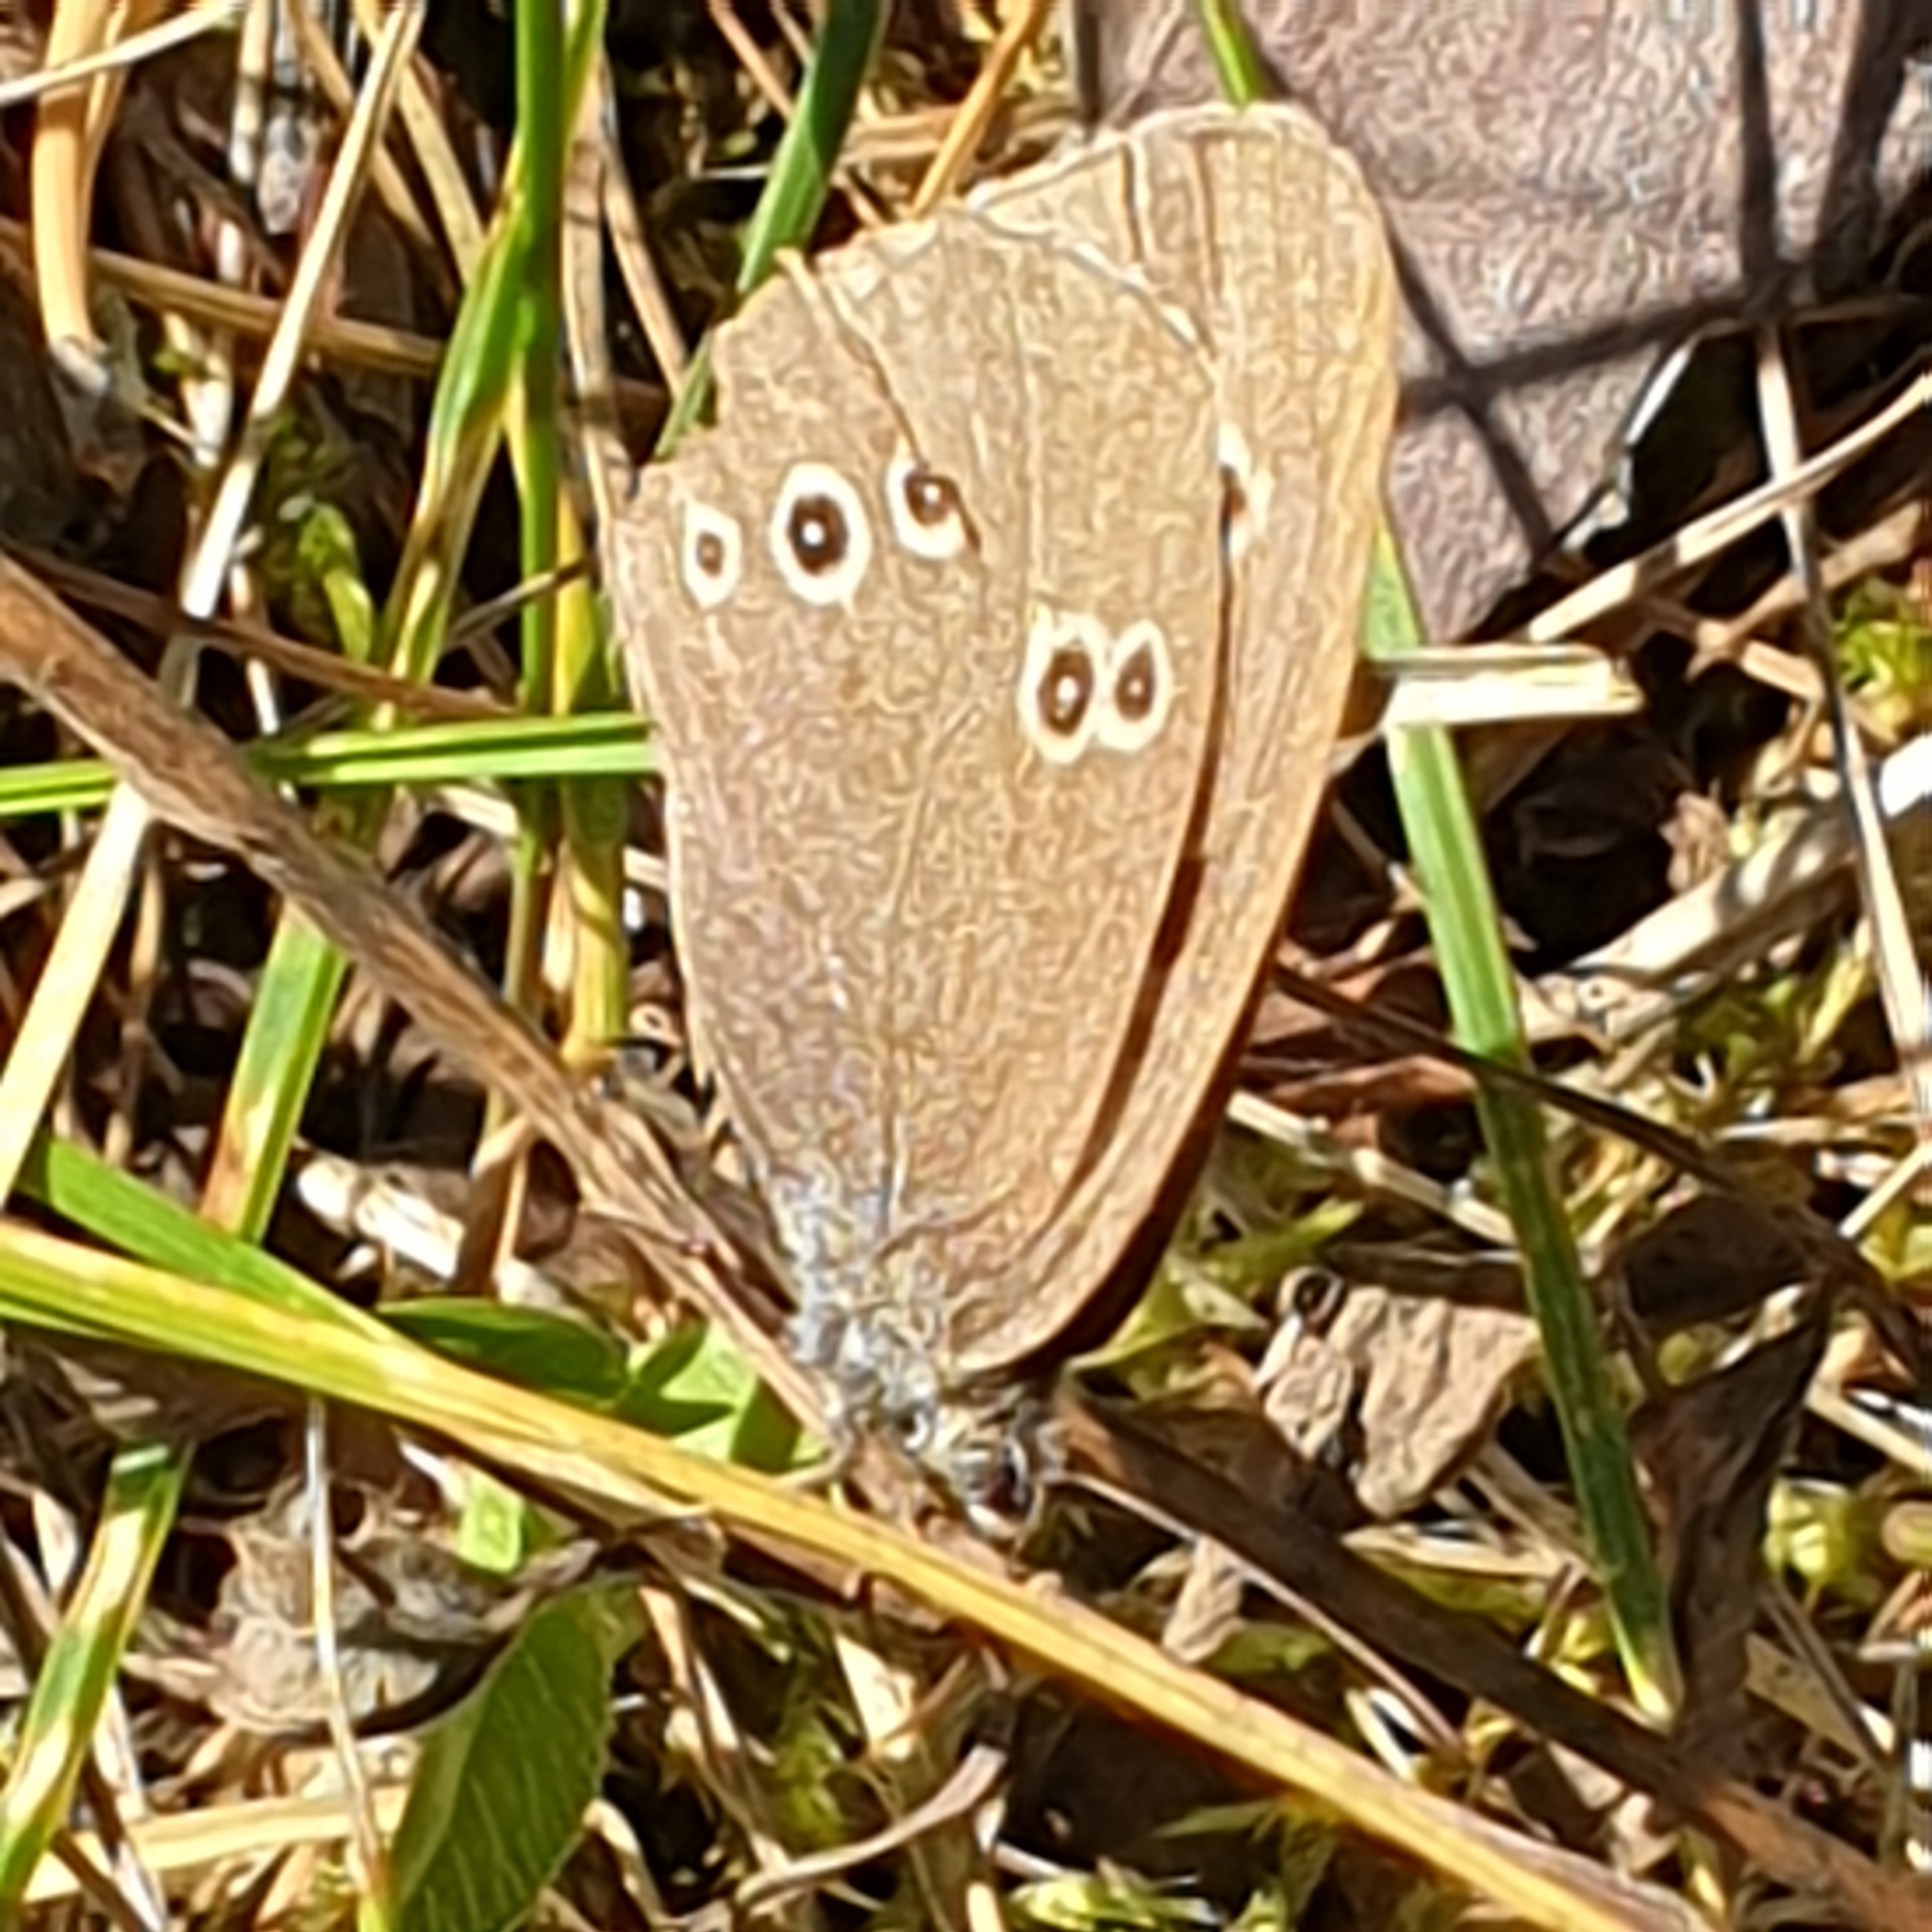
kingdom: Animalia
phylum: Arthropoda
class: Insecta
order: Lepidoptera
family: Nymphalidae
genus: Aphantopus
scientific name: Aphantopus hyperantus
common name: Ringlet
